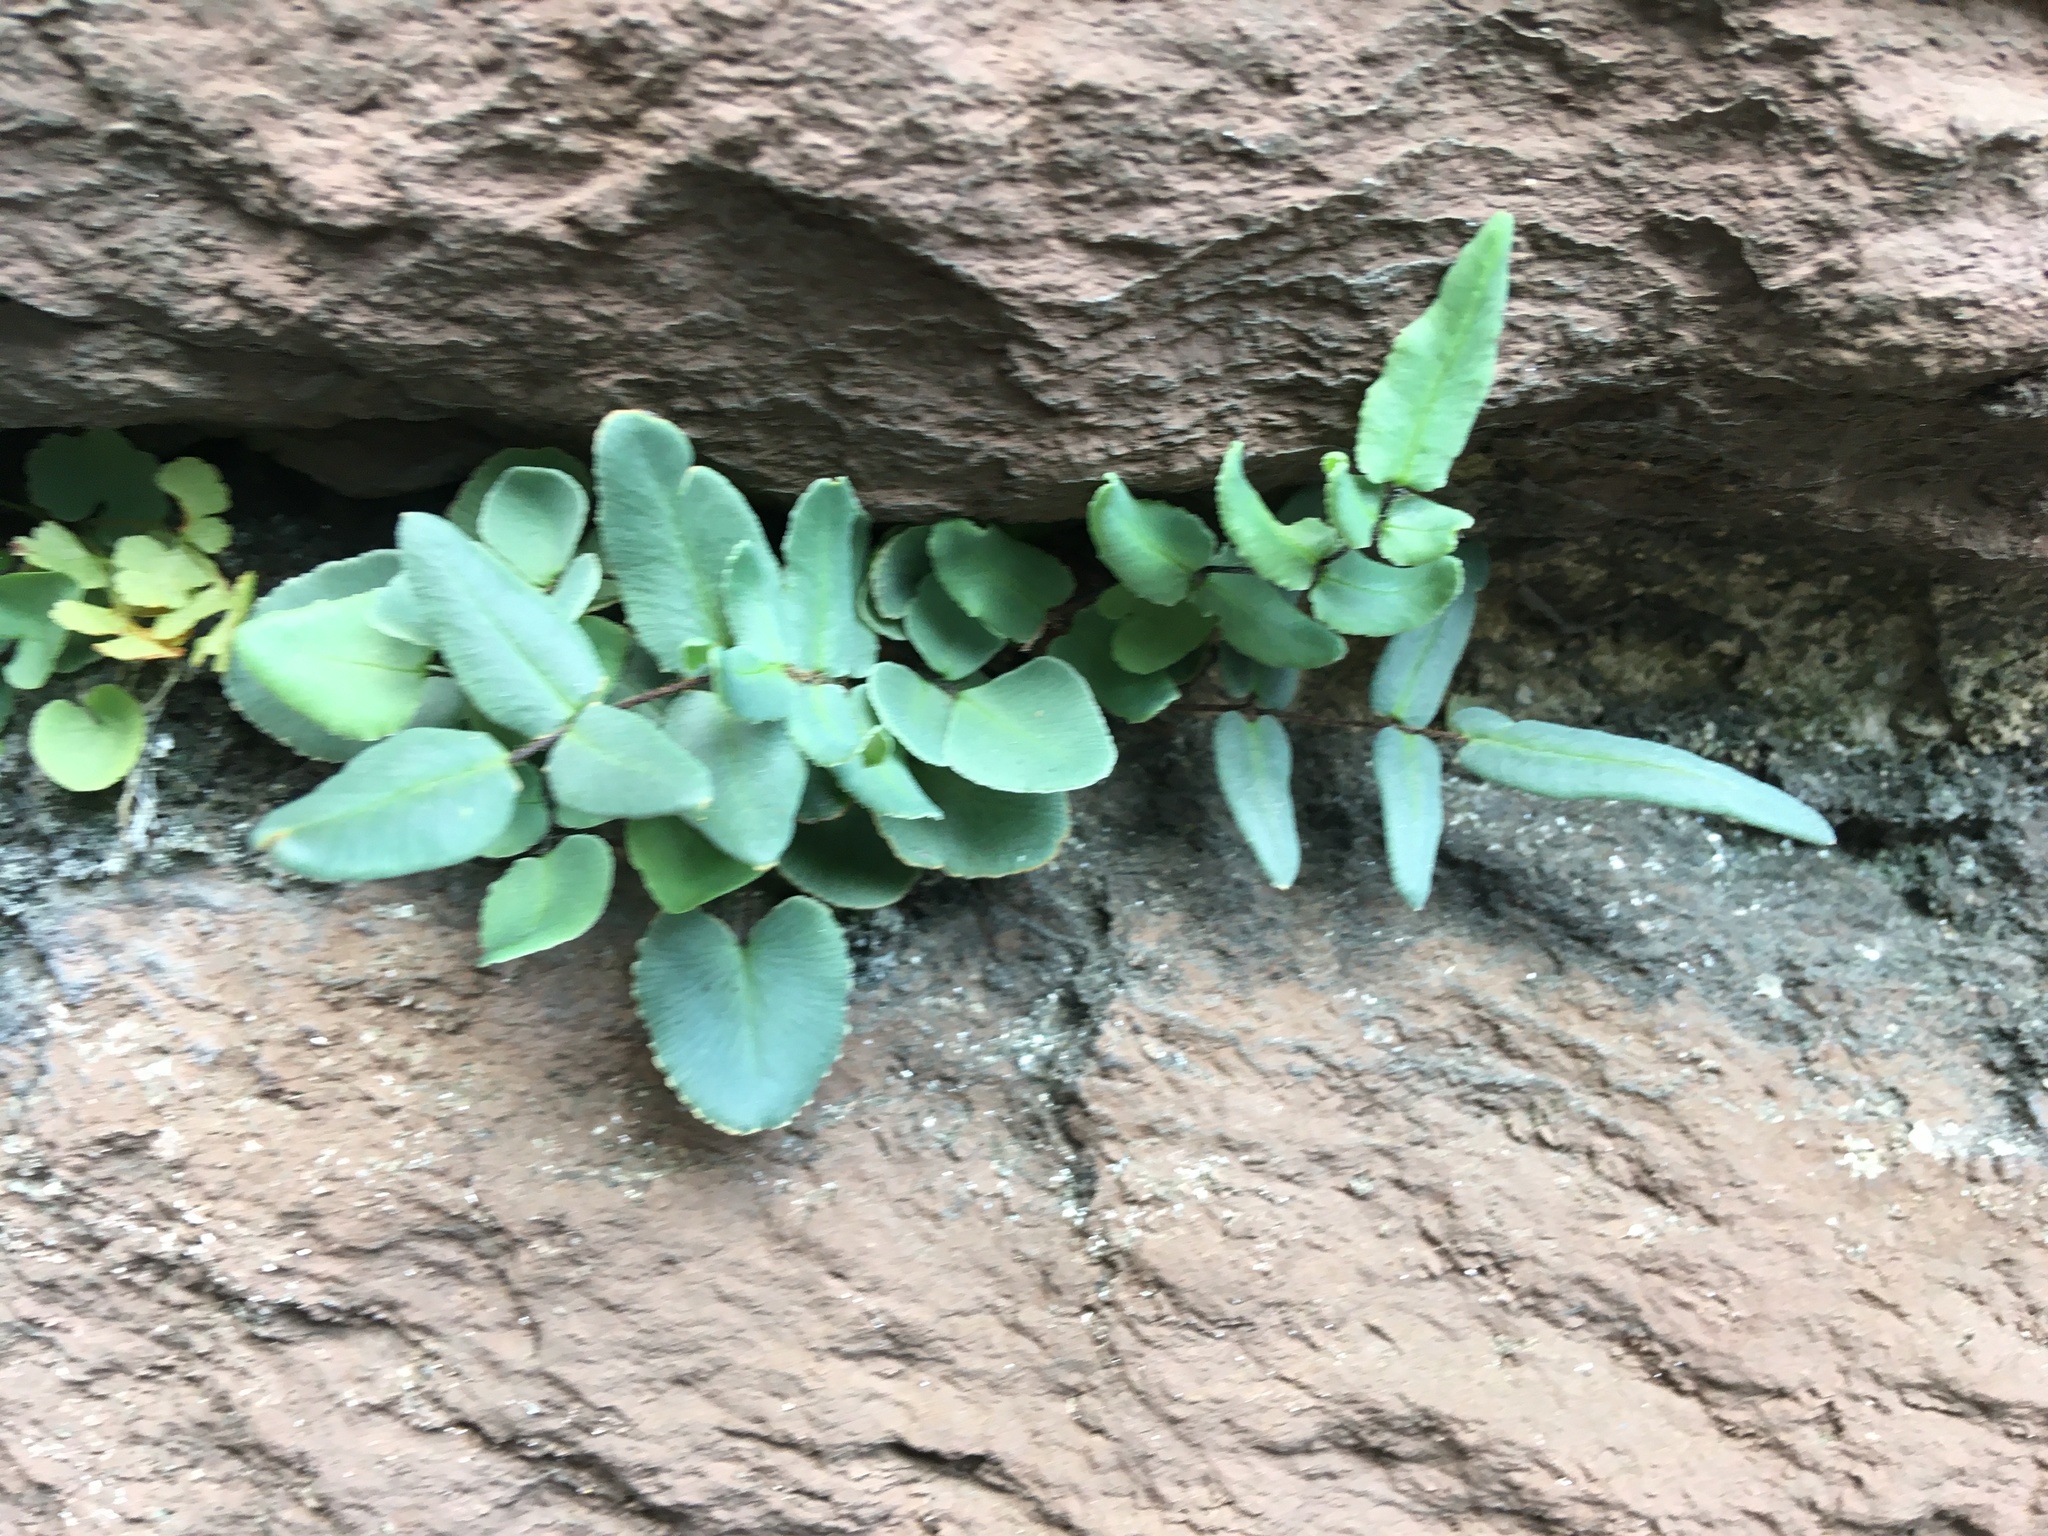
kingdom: Plantae
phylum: Tracheophyta
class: Polypodiopsida
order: Polypodiales
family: Pteridaceae
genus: Pellaea
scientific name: Pellaea atropurpurea
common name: Hairy cliffbrake
